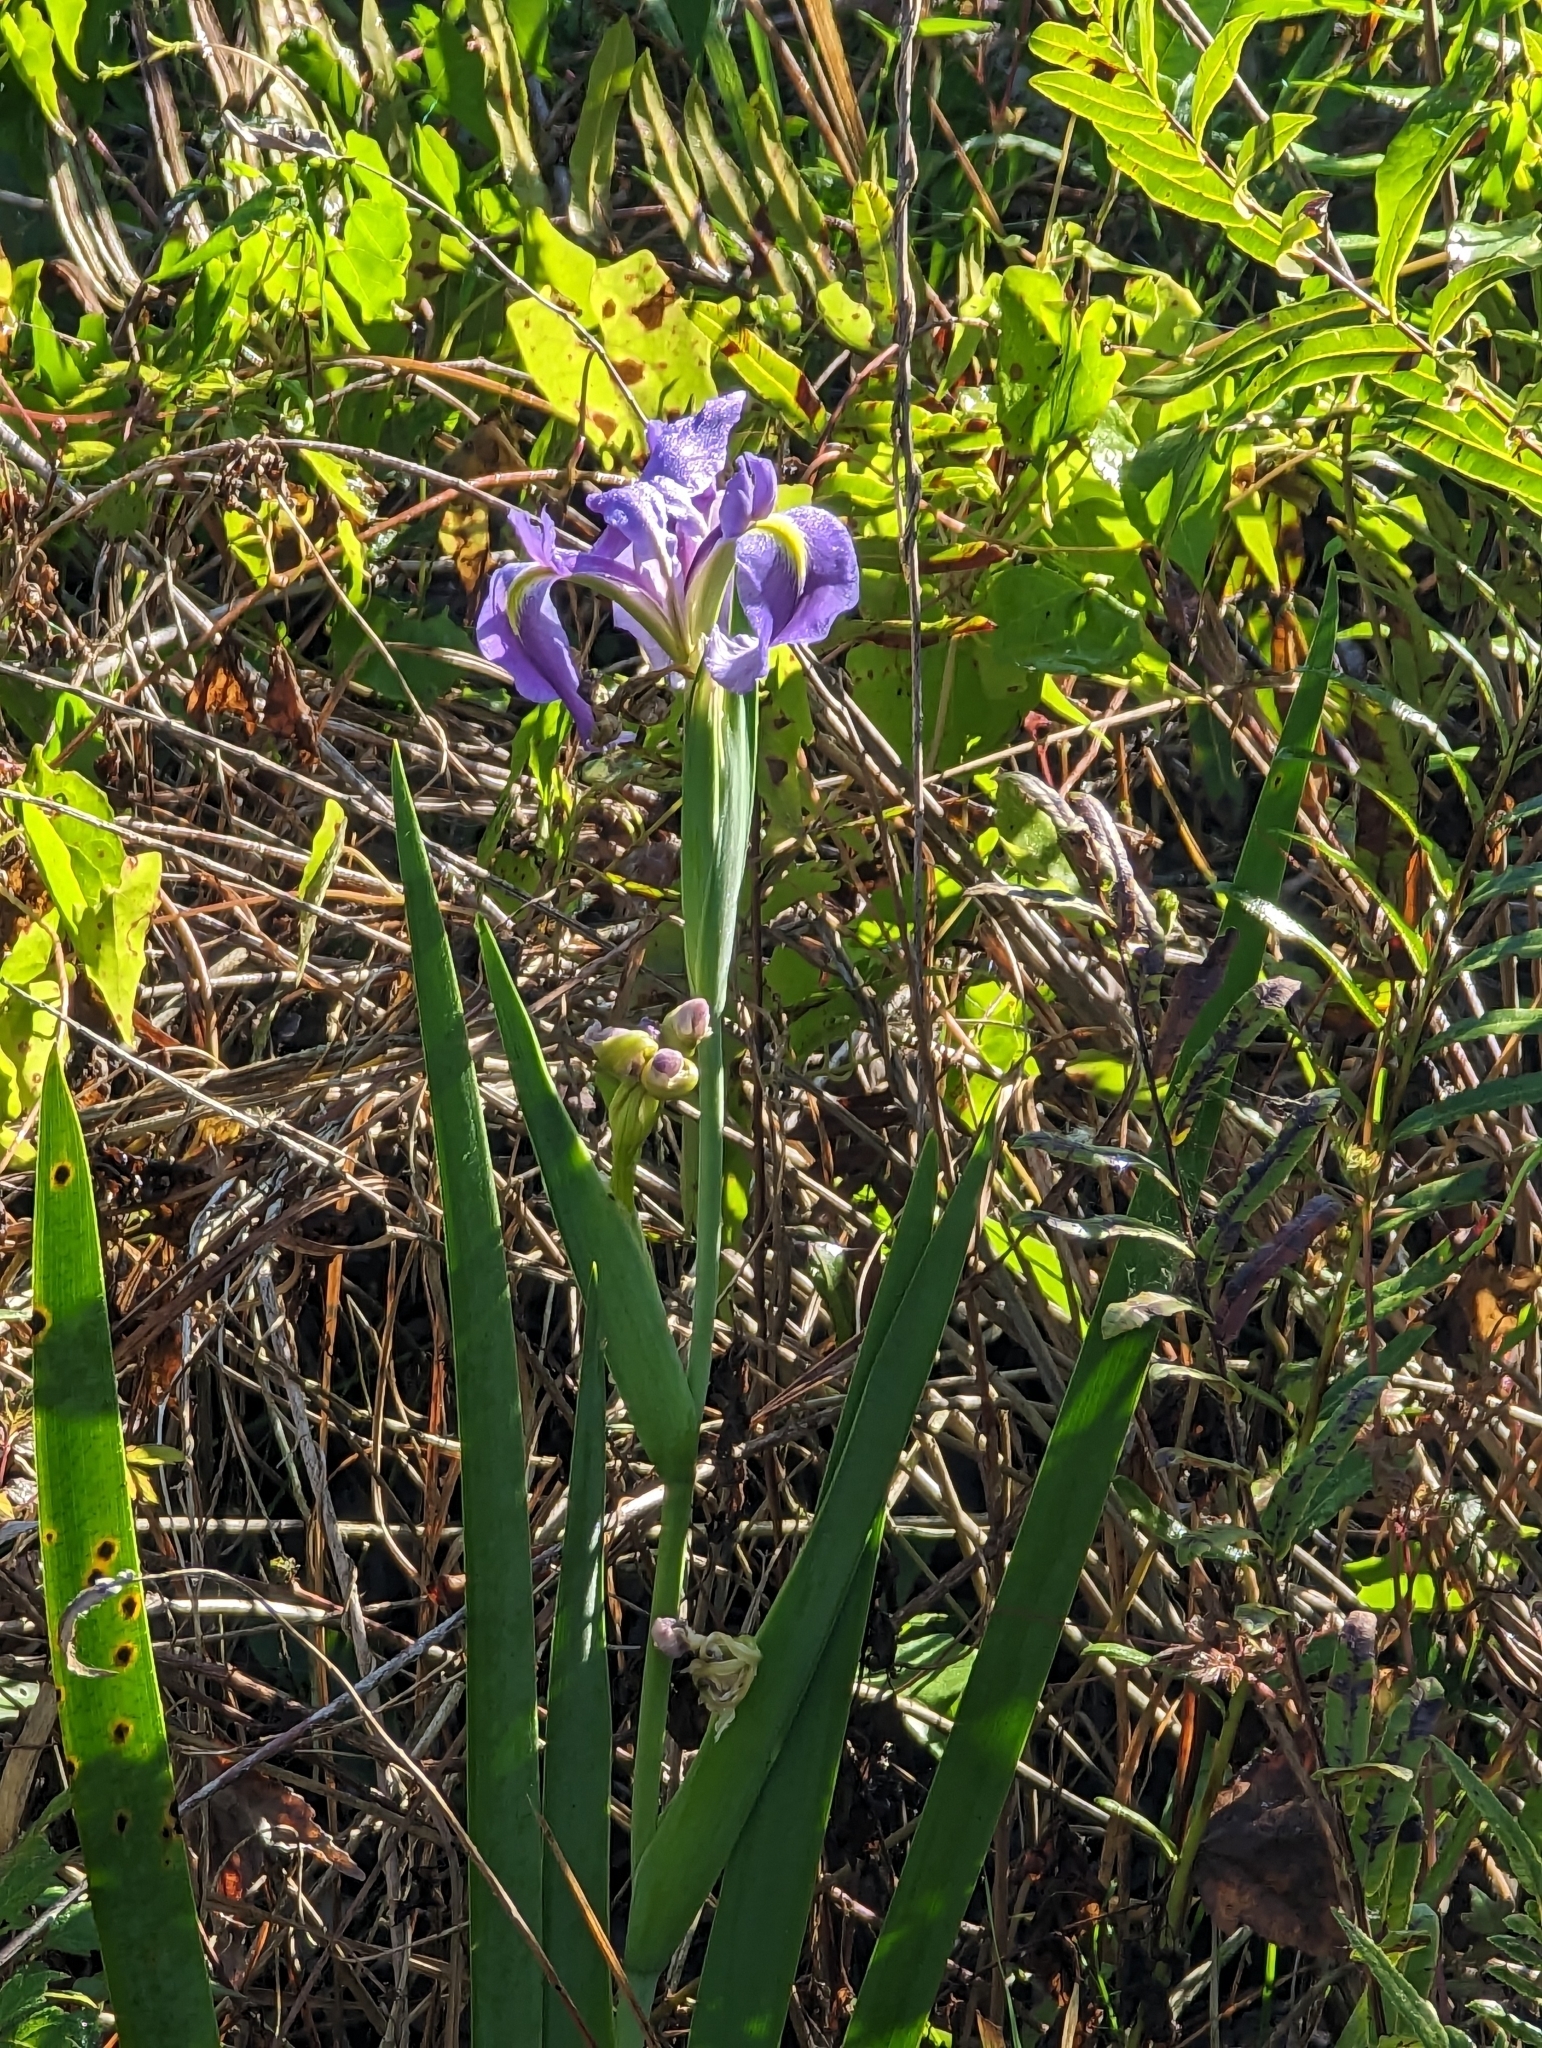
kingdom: Plantae
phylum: Tracheophyta
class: Liliopsida
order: Asparagales
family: Iridaceae
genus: Iris
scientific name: Iris savannarum
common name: Prairie iris
